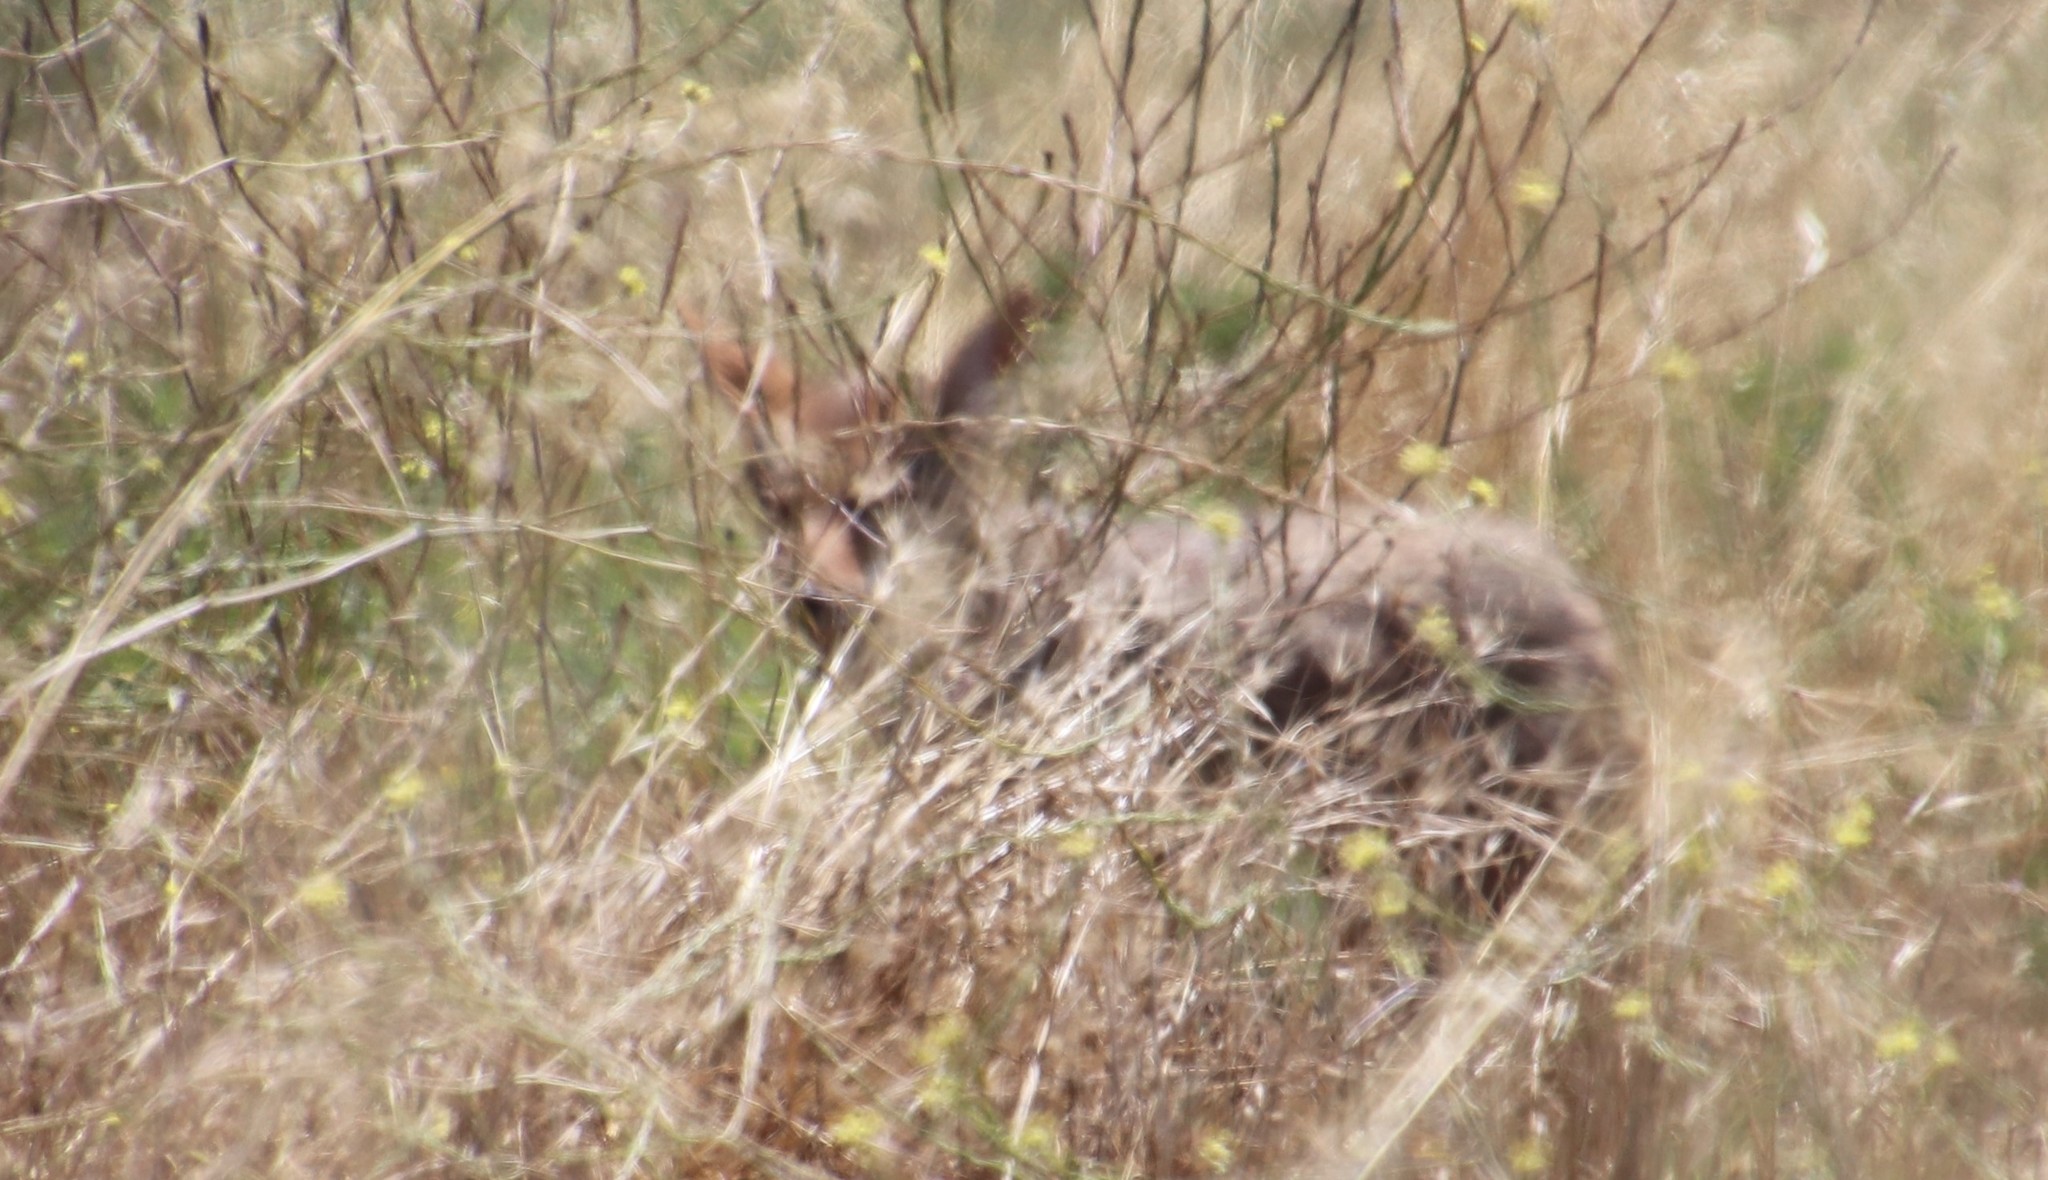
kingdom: Animalia
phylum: Chordata
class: Mammalia
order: Carnivora
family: Canidae
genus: Canis
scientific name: Canis latrans
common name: Coyote
